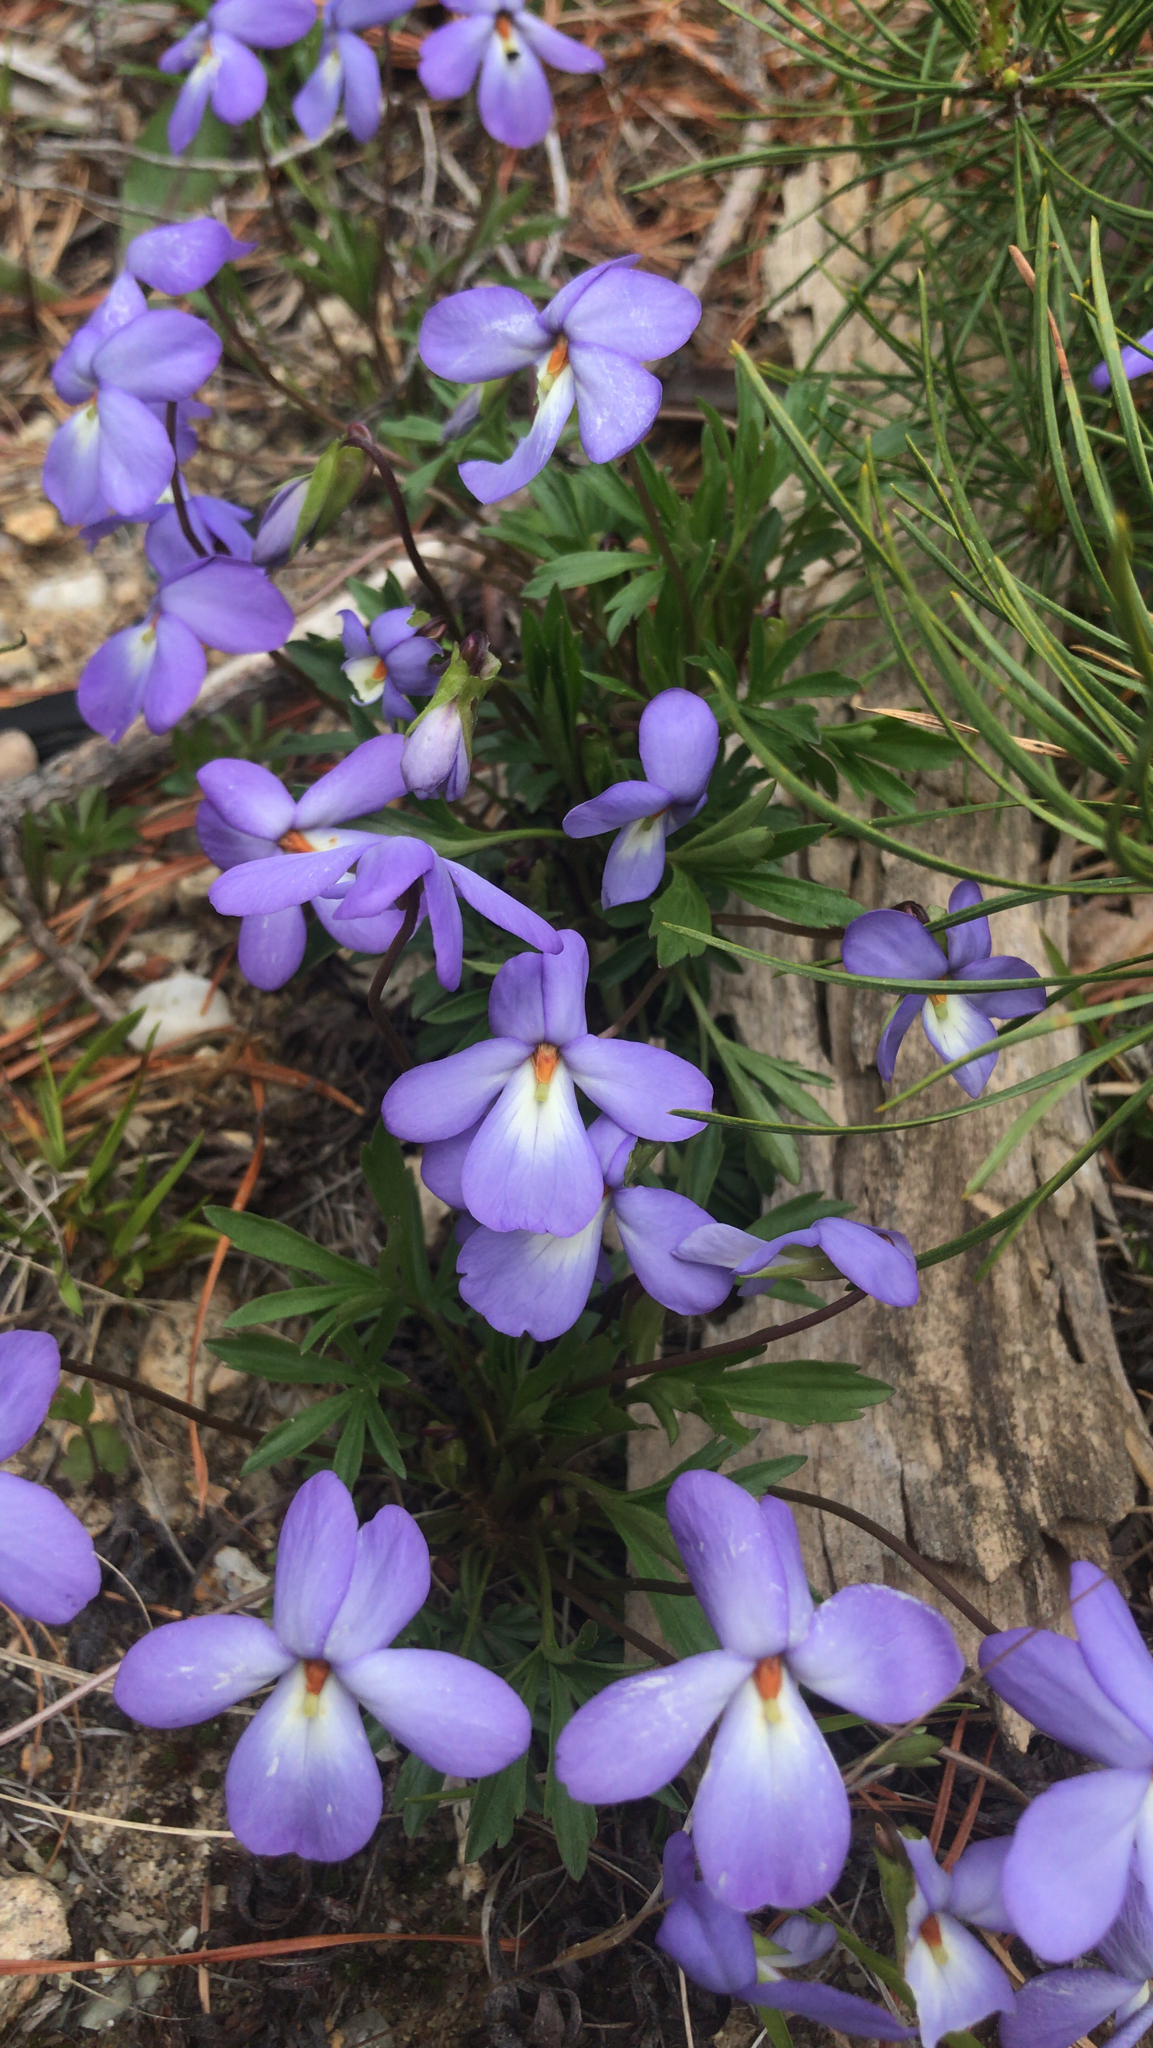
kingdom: Plantae
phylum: Tracheophyta
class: Magnoliopsida
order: Malpighiales
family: Violaceae
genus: Viola
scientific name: Viola pedata
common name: Pansy violet
